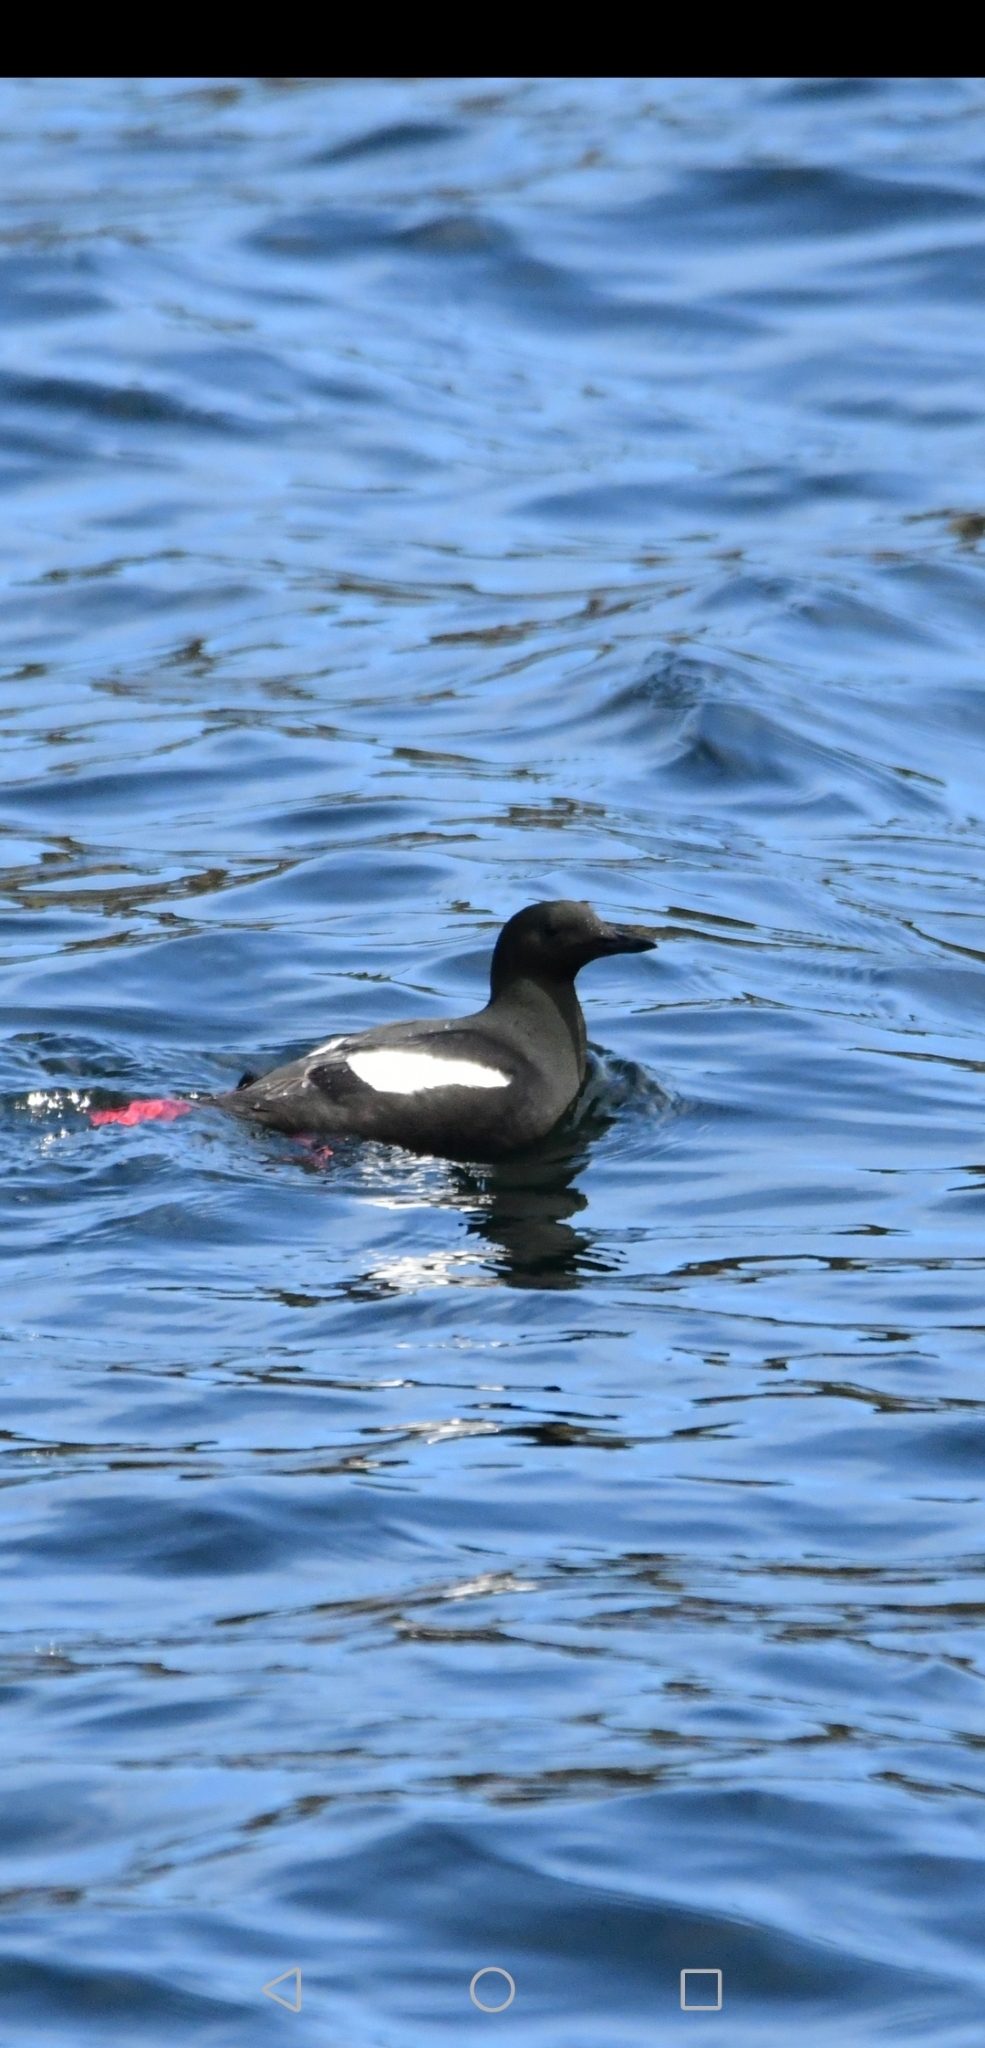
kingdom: Animalia
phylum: Chordata
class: Aves
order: Charadriiformes
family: Alcidae
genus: Cepphus
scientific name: Cepphus grylle
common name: Black guillemot
